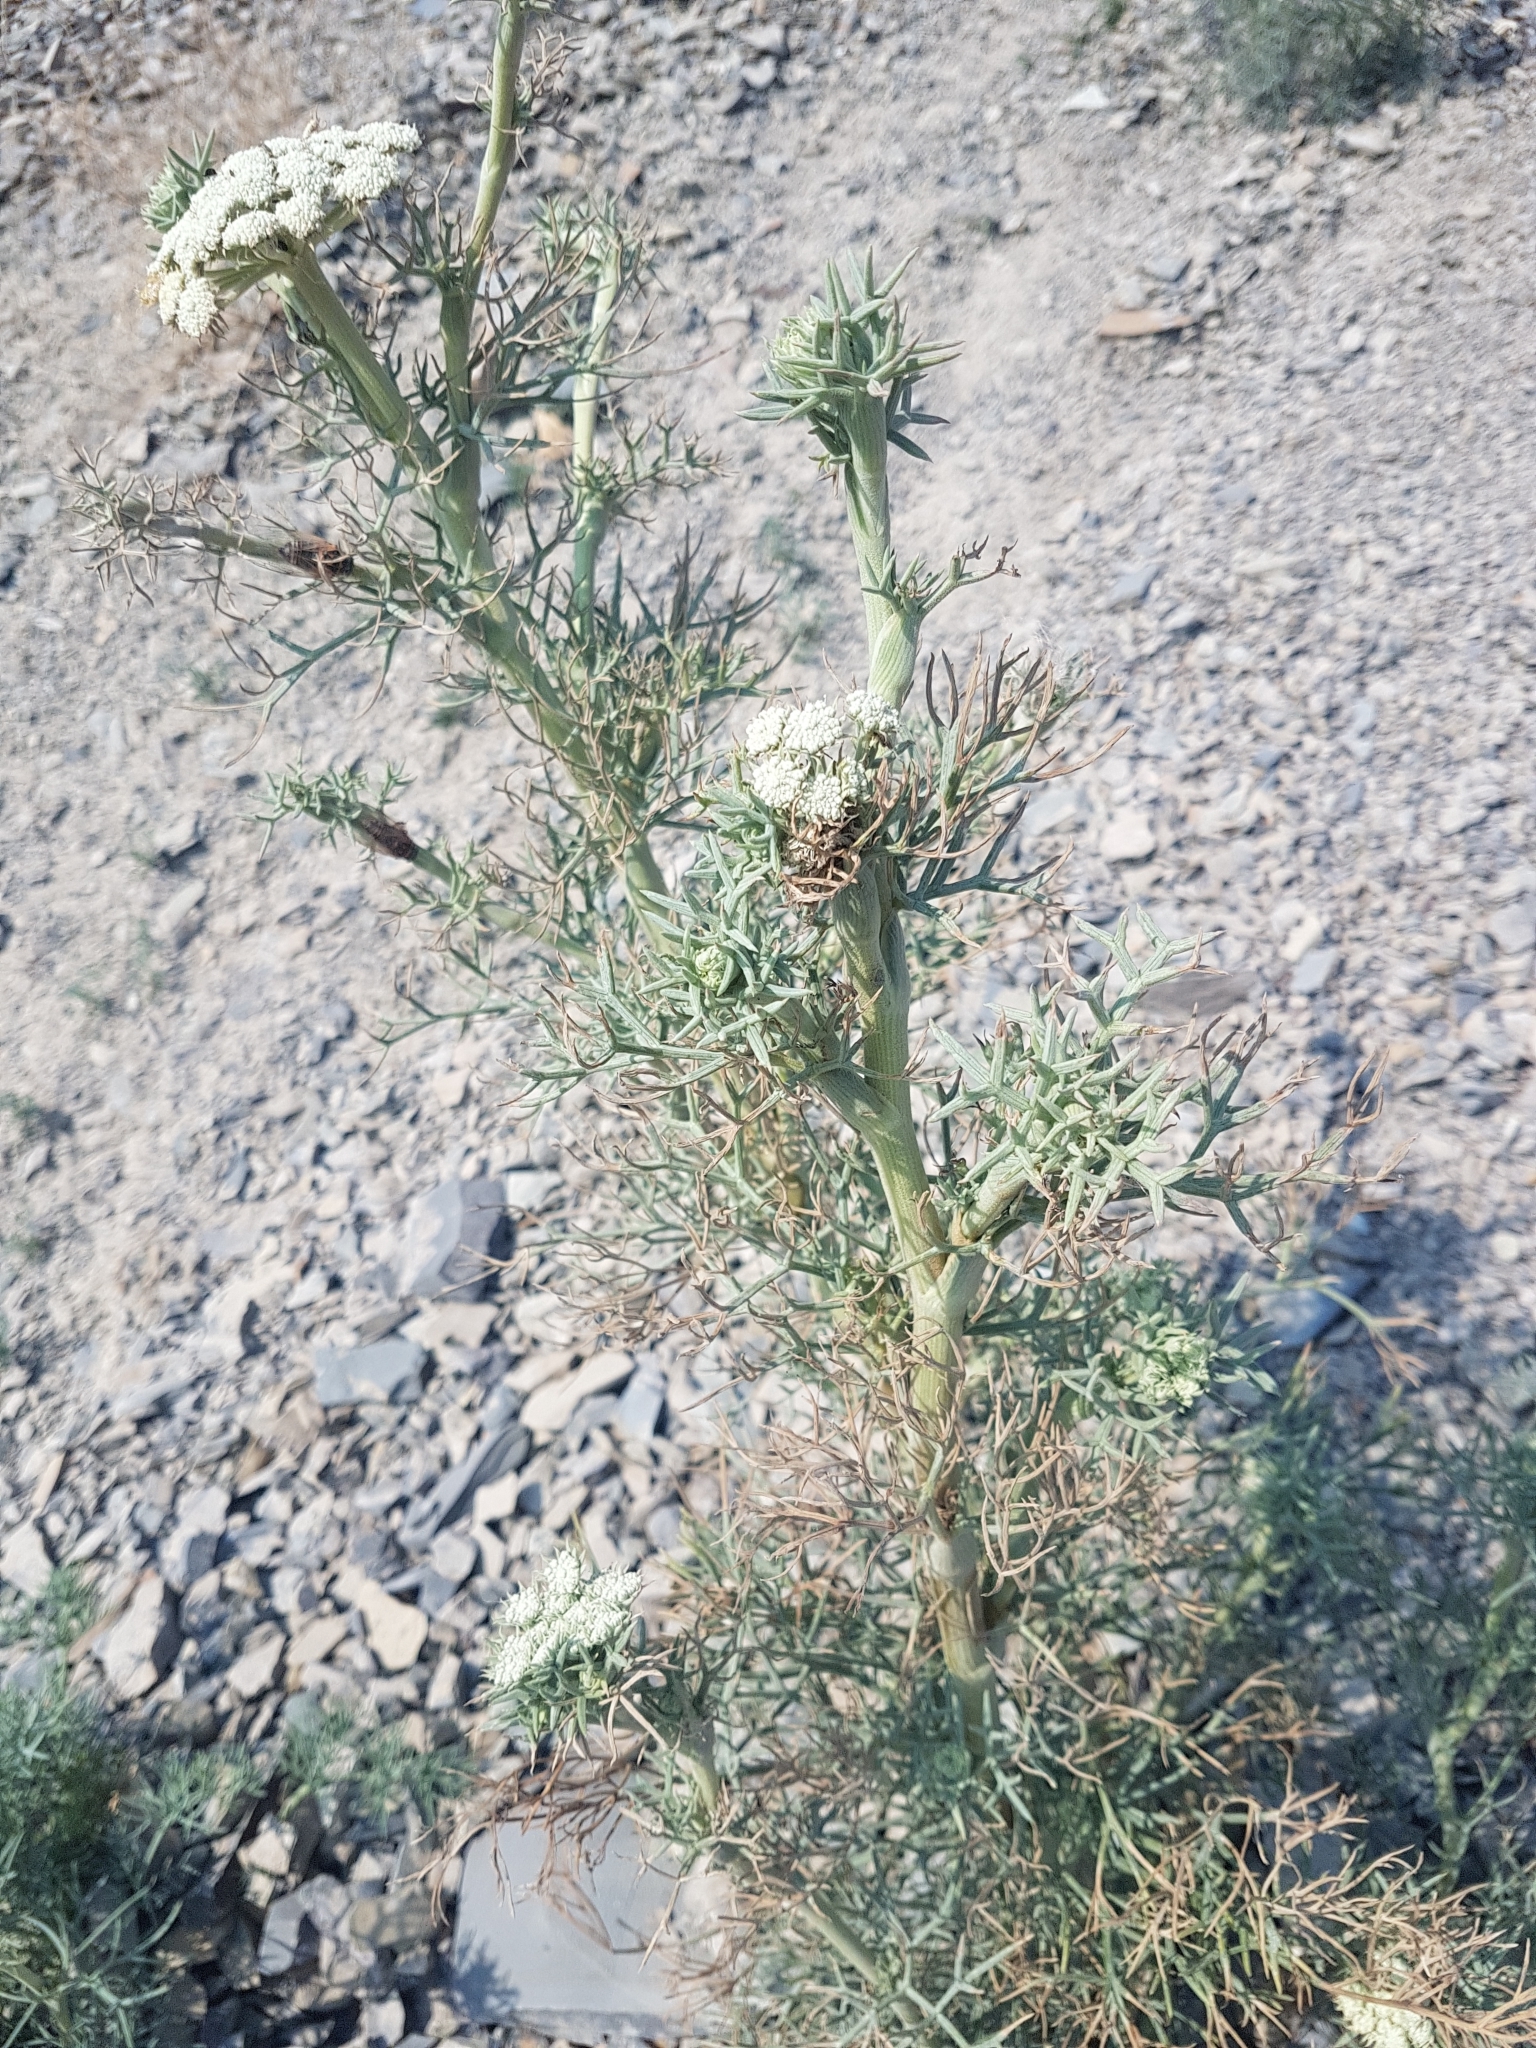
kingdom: Plantae
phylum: Tracheophyta
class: Magnoliopsida
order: Apiales
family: Apiaceae
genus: Seseli
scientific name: Seseli ponticum
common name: Pontic seseli
